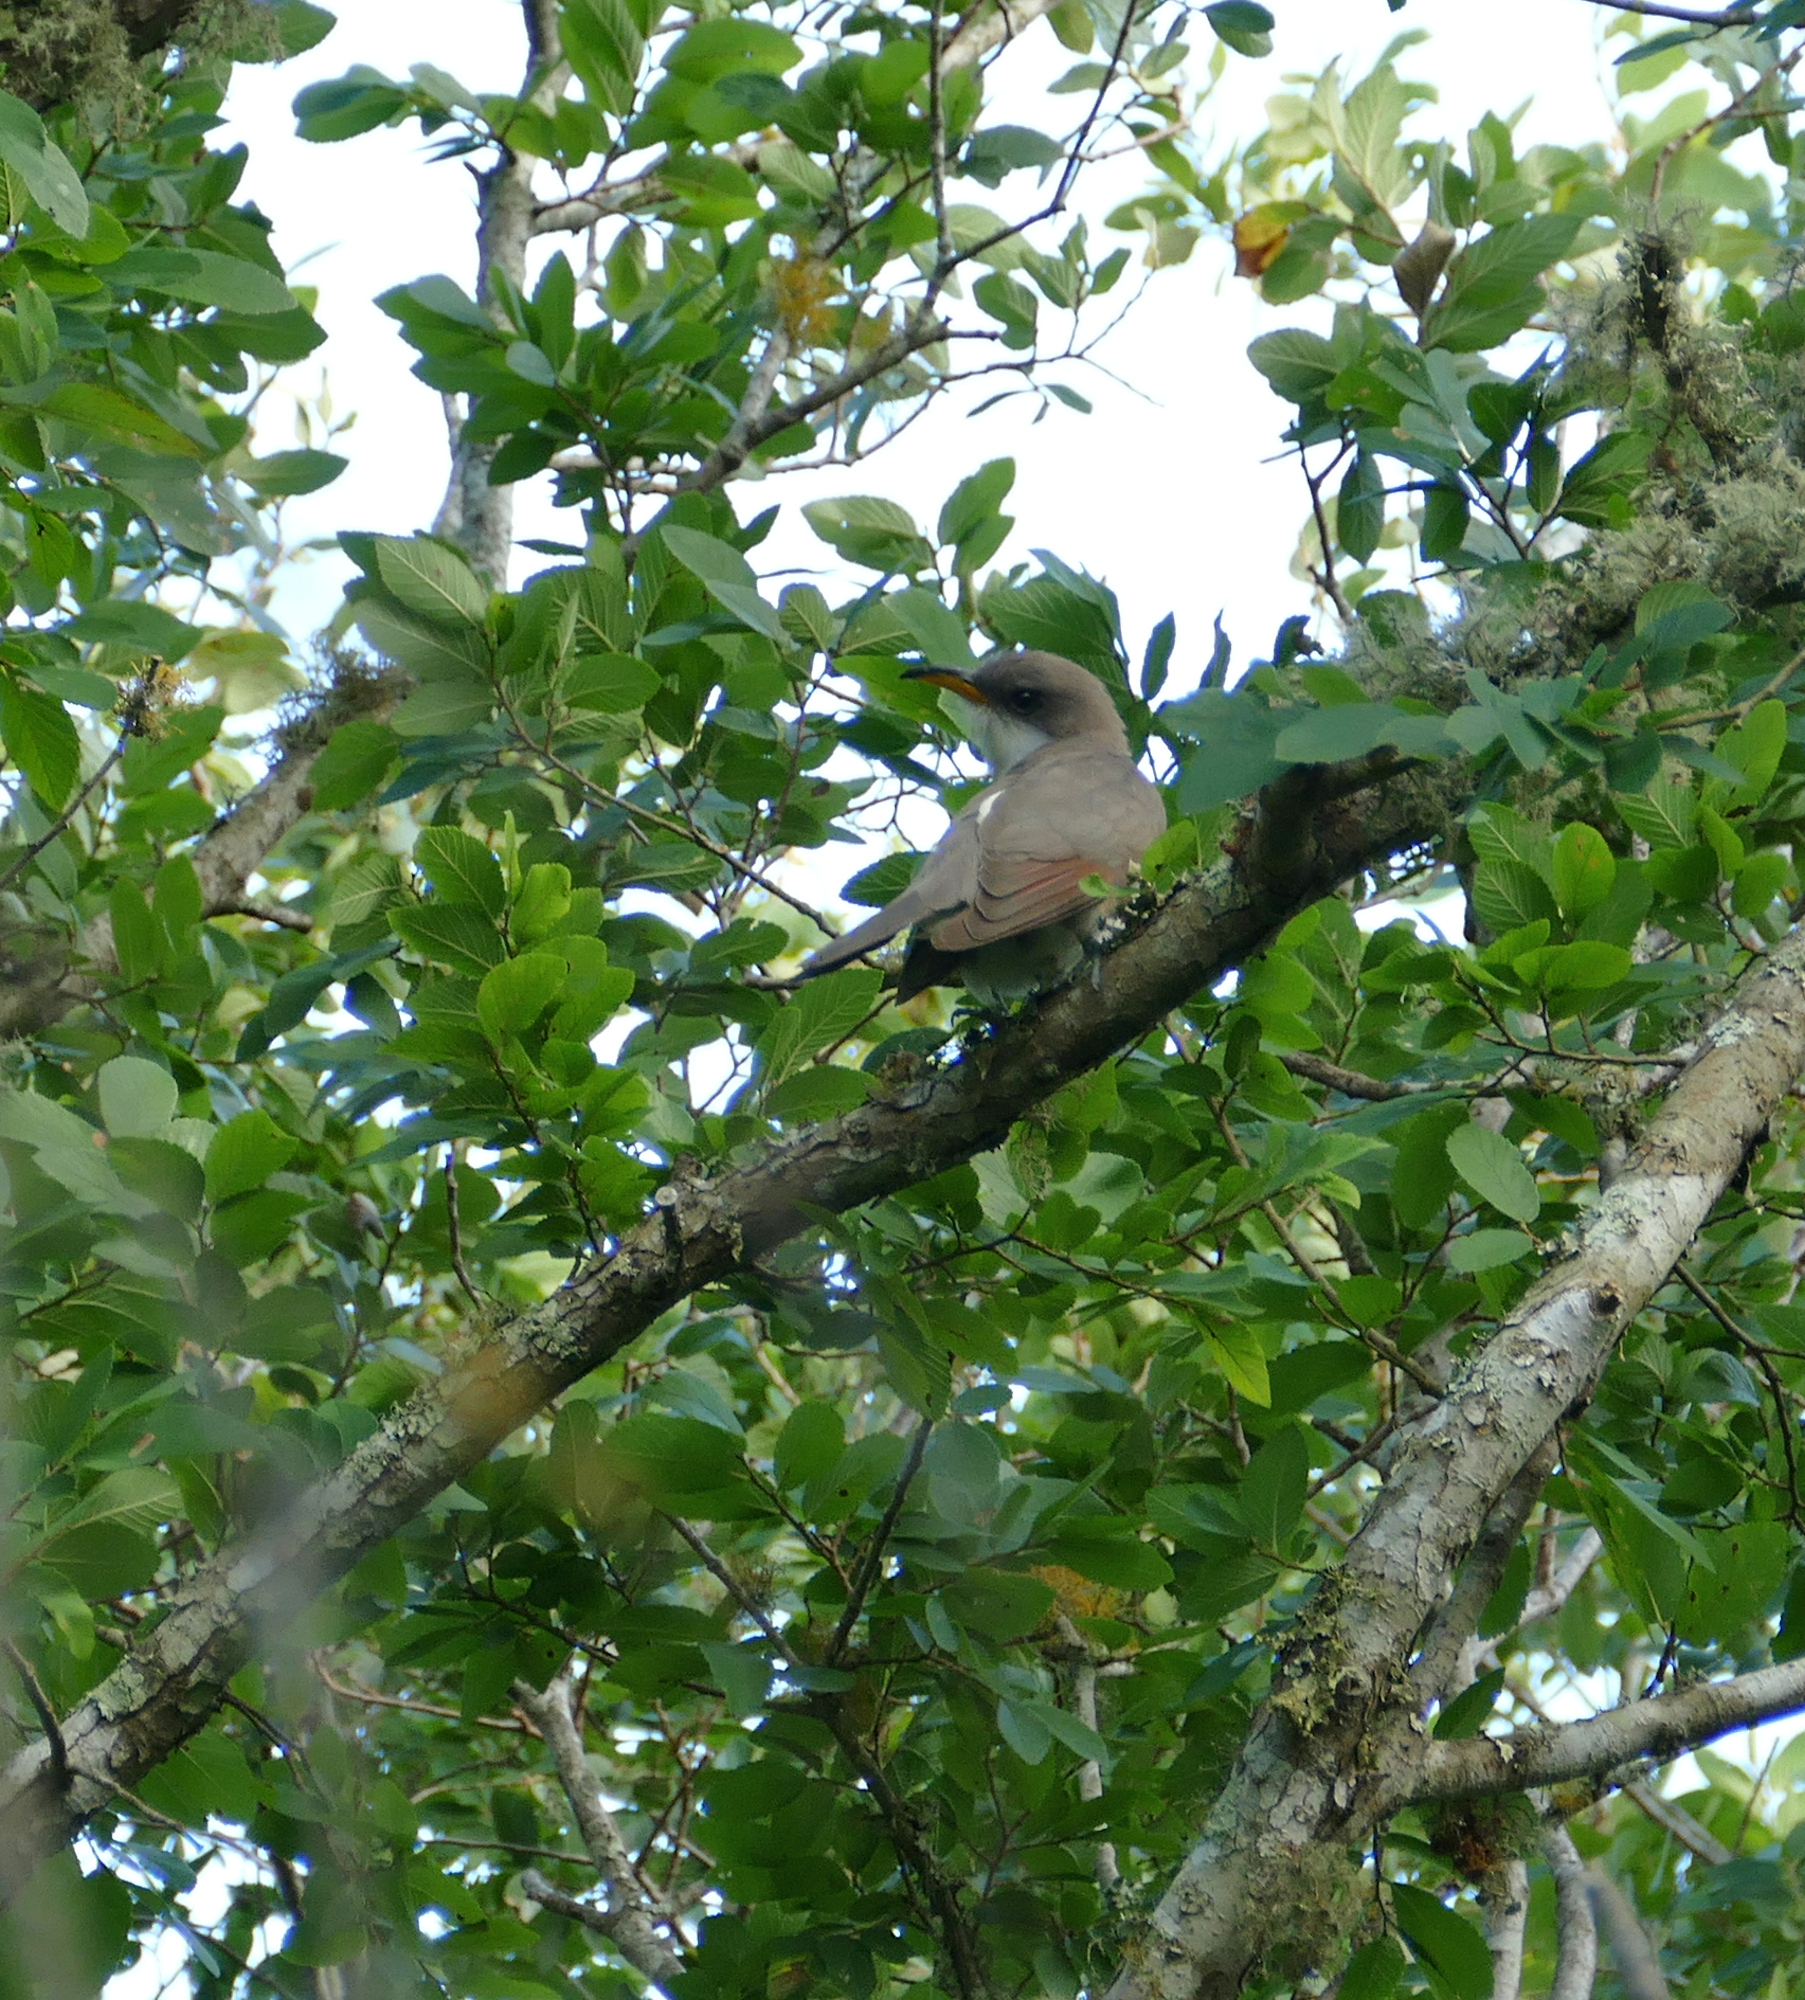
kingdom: Animalia
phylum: Chordata
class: Aves
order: Cuculiformes
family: Cuculidae
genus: Coccyzus
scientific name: Coccyzus americanus
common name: Yellow-billed cuckoo
